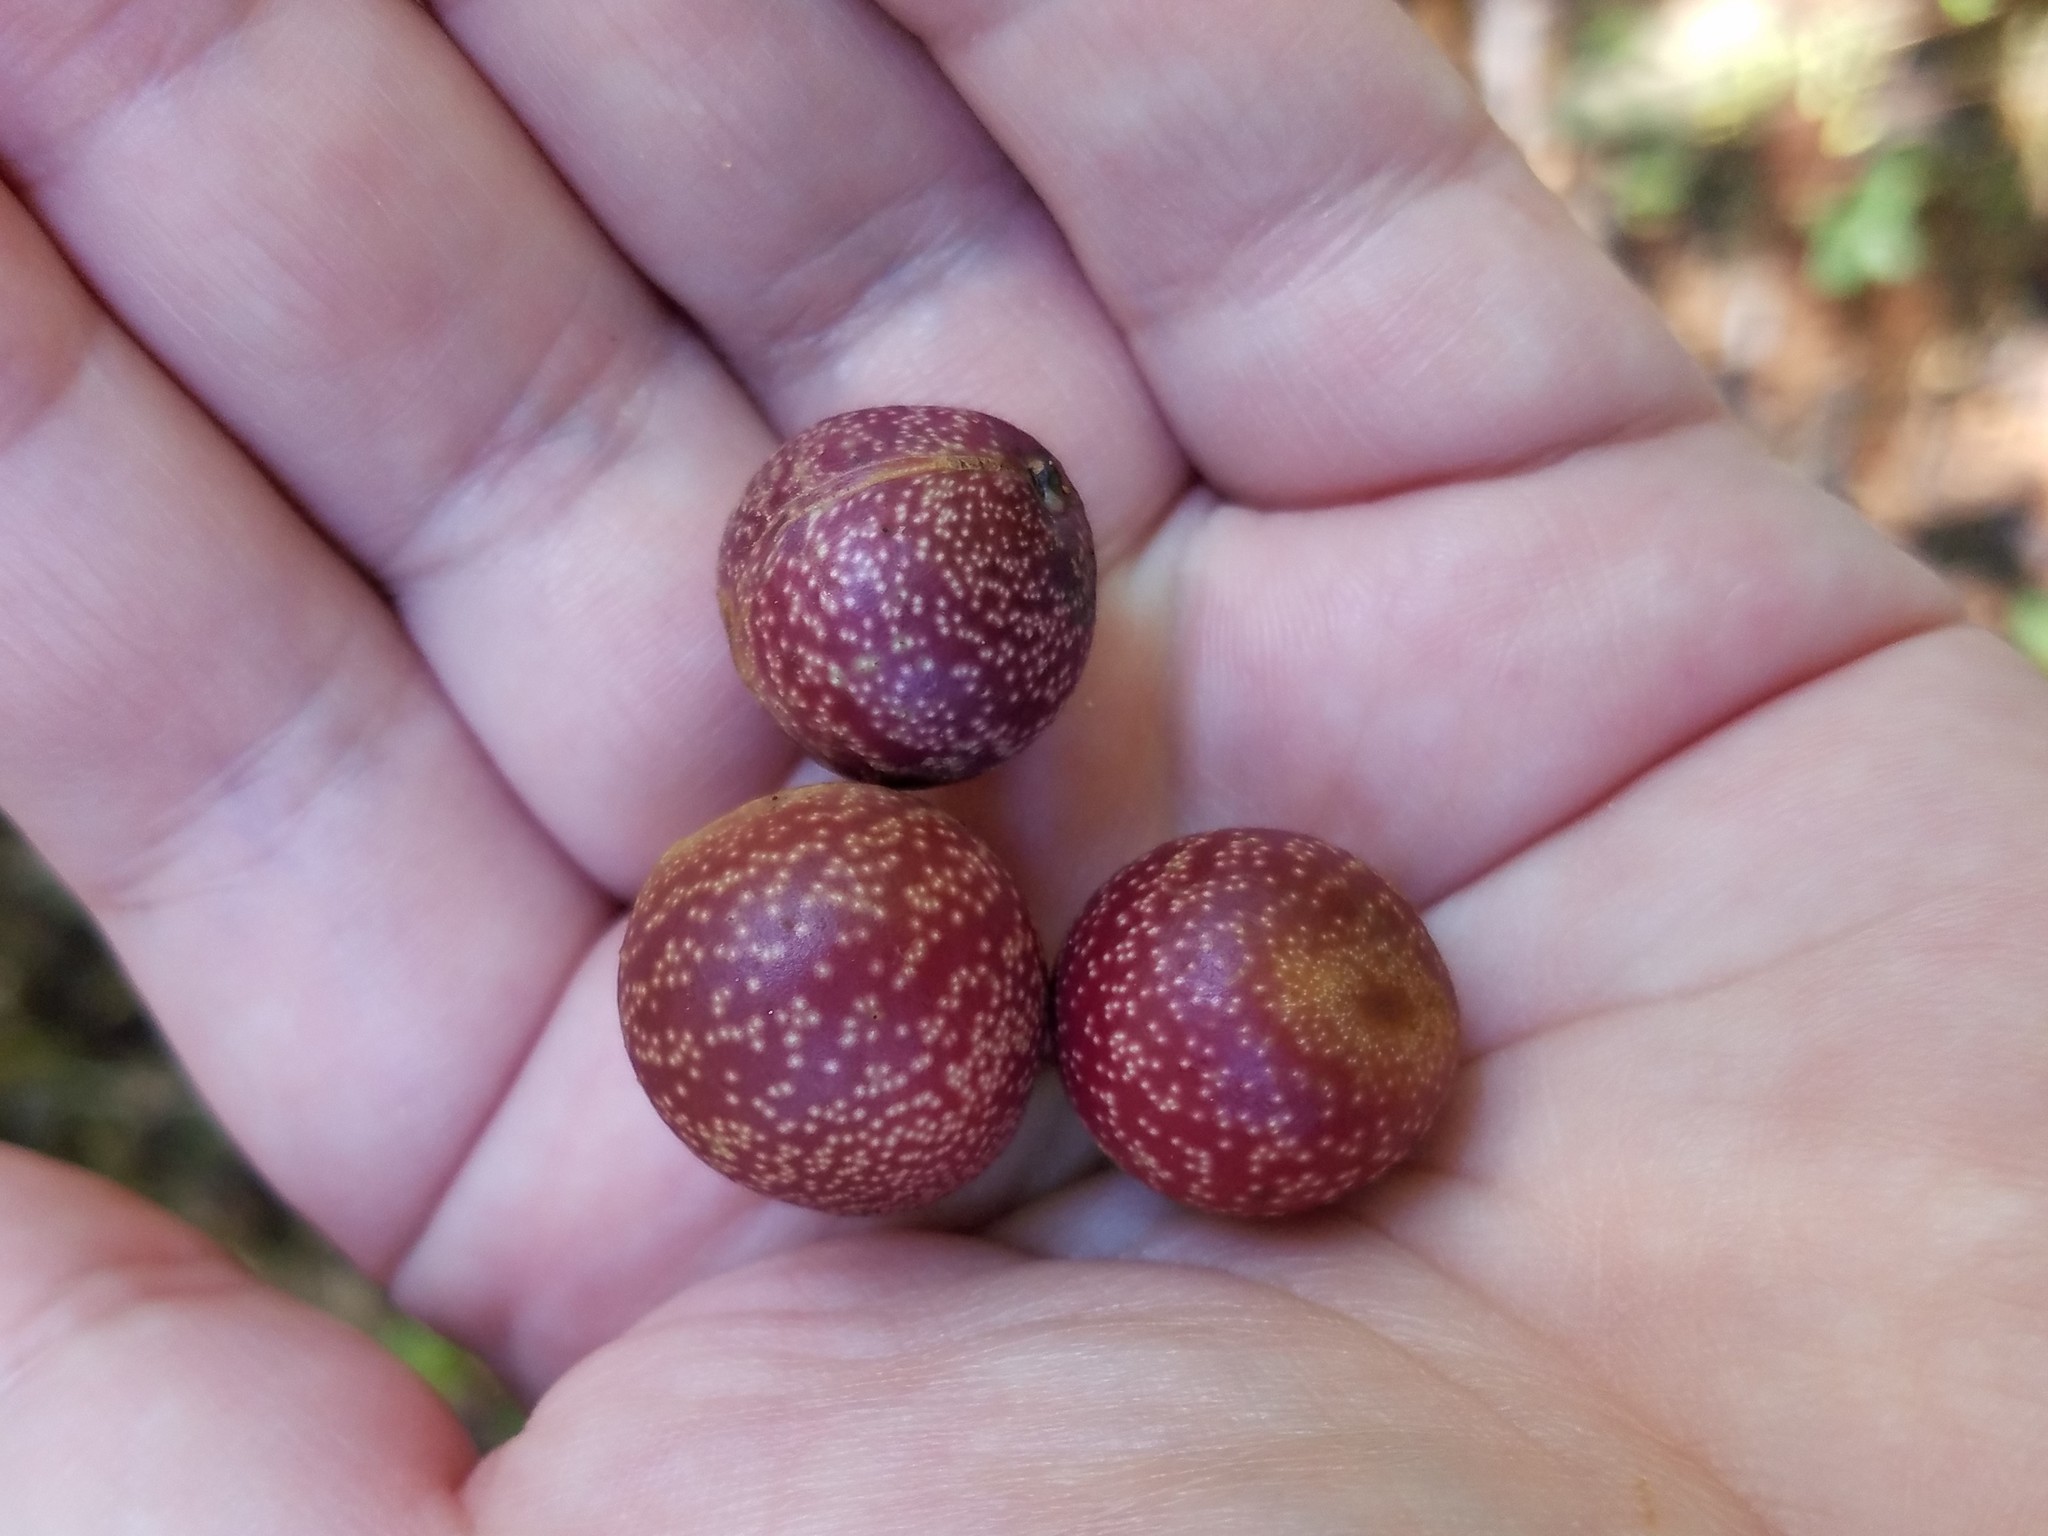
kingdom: Animalia
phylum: Arthropoda
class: Insecta
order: Hymenoptera
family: Cynipidae
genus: Kokkocynips
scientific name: Kokkocynips imbricariae
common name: Banded bullet gall wasp
